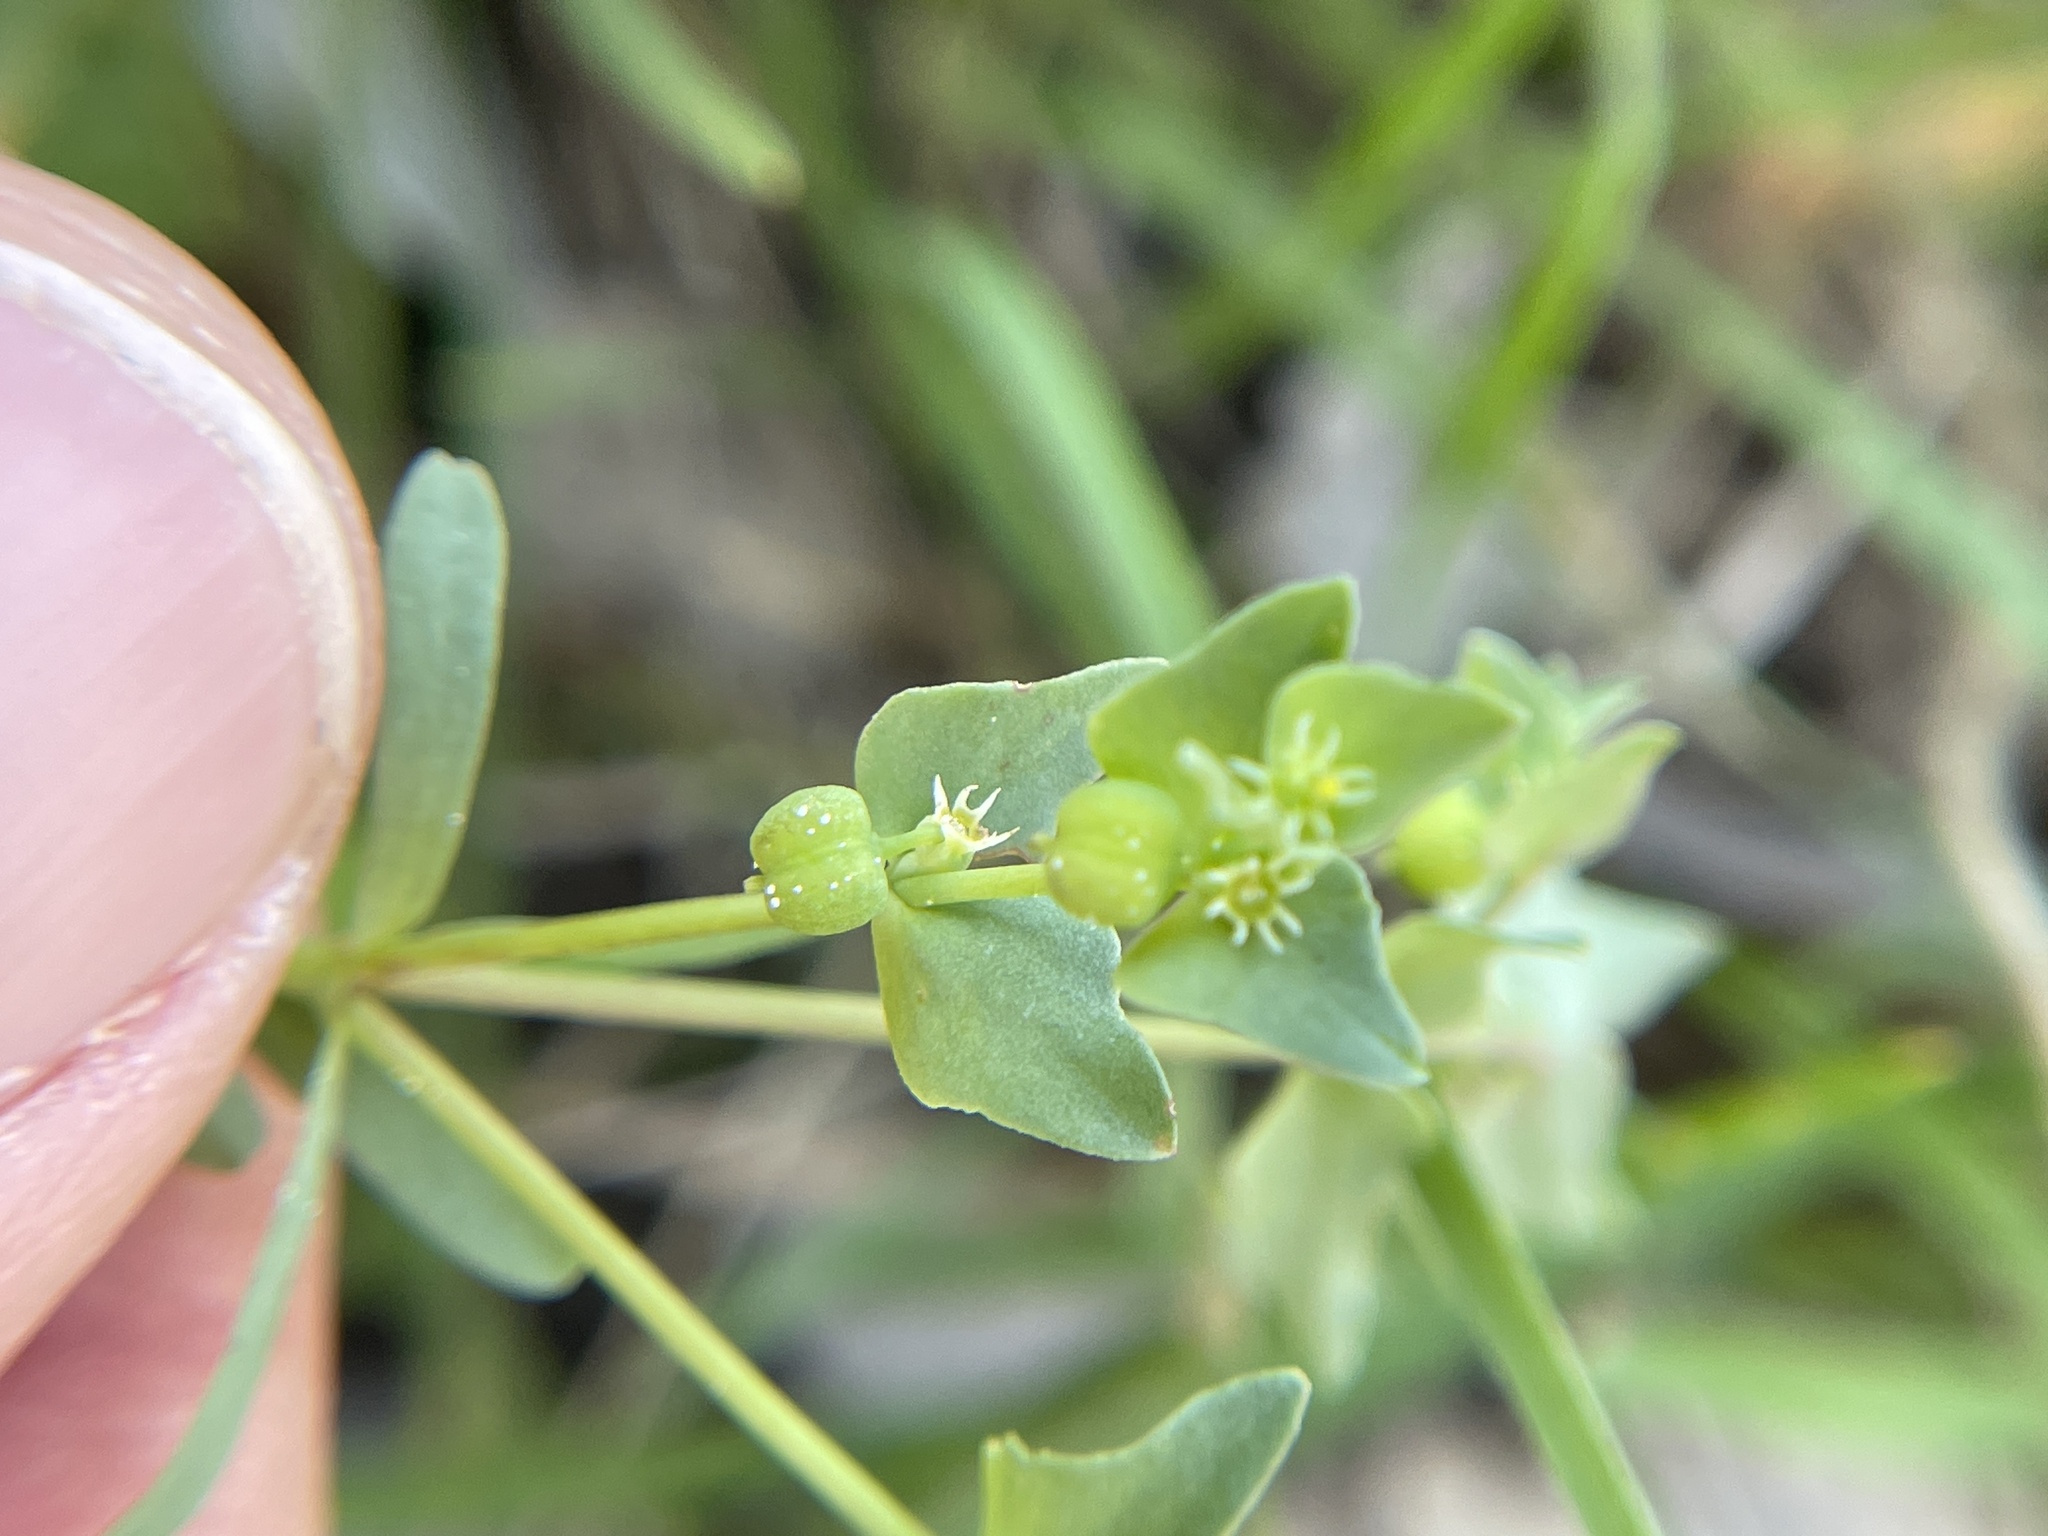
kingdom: Plantae
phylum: Tracheophyta
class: Magnoliopsida
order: Malpighiales
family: Euphorbiaceae
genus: Euphorbia
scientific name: Euphorbia peplidion
